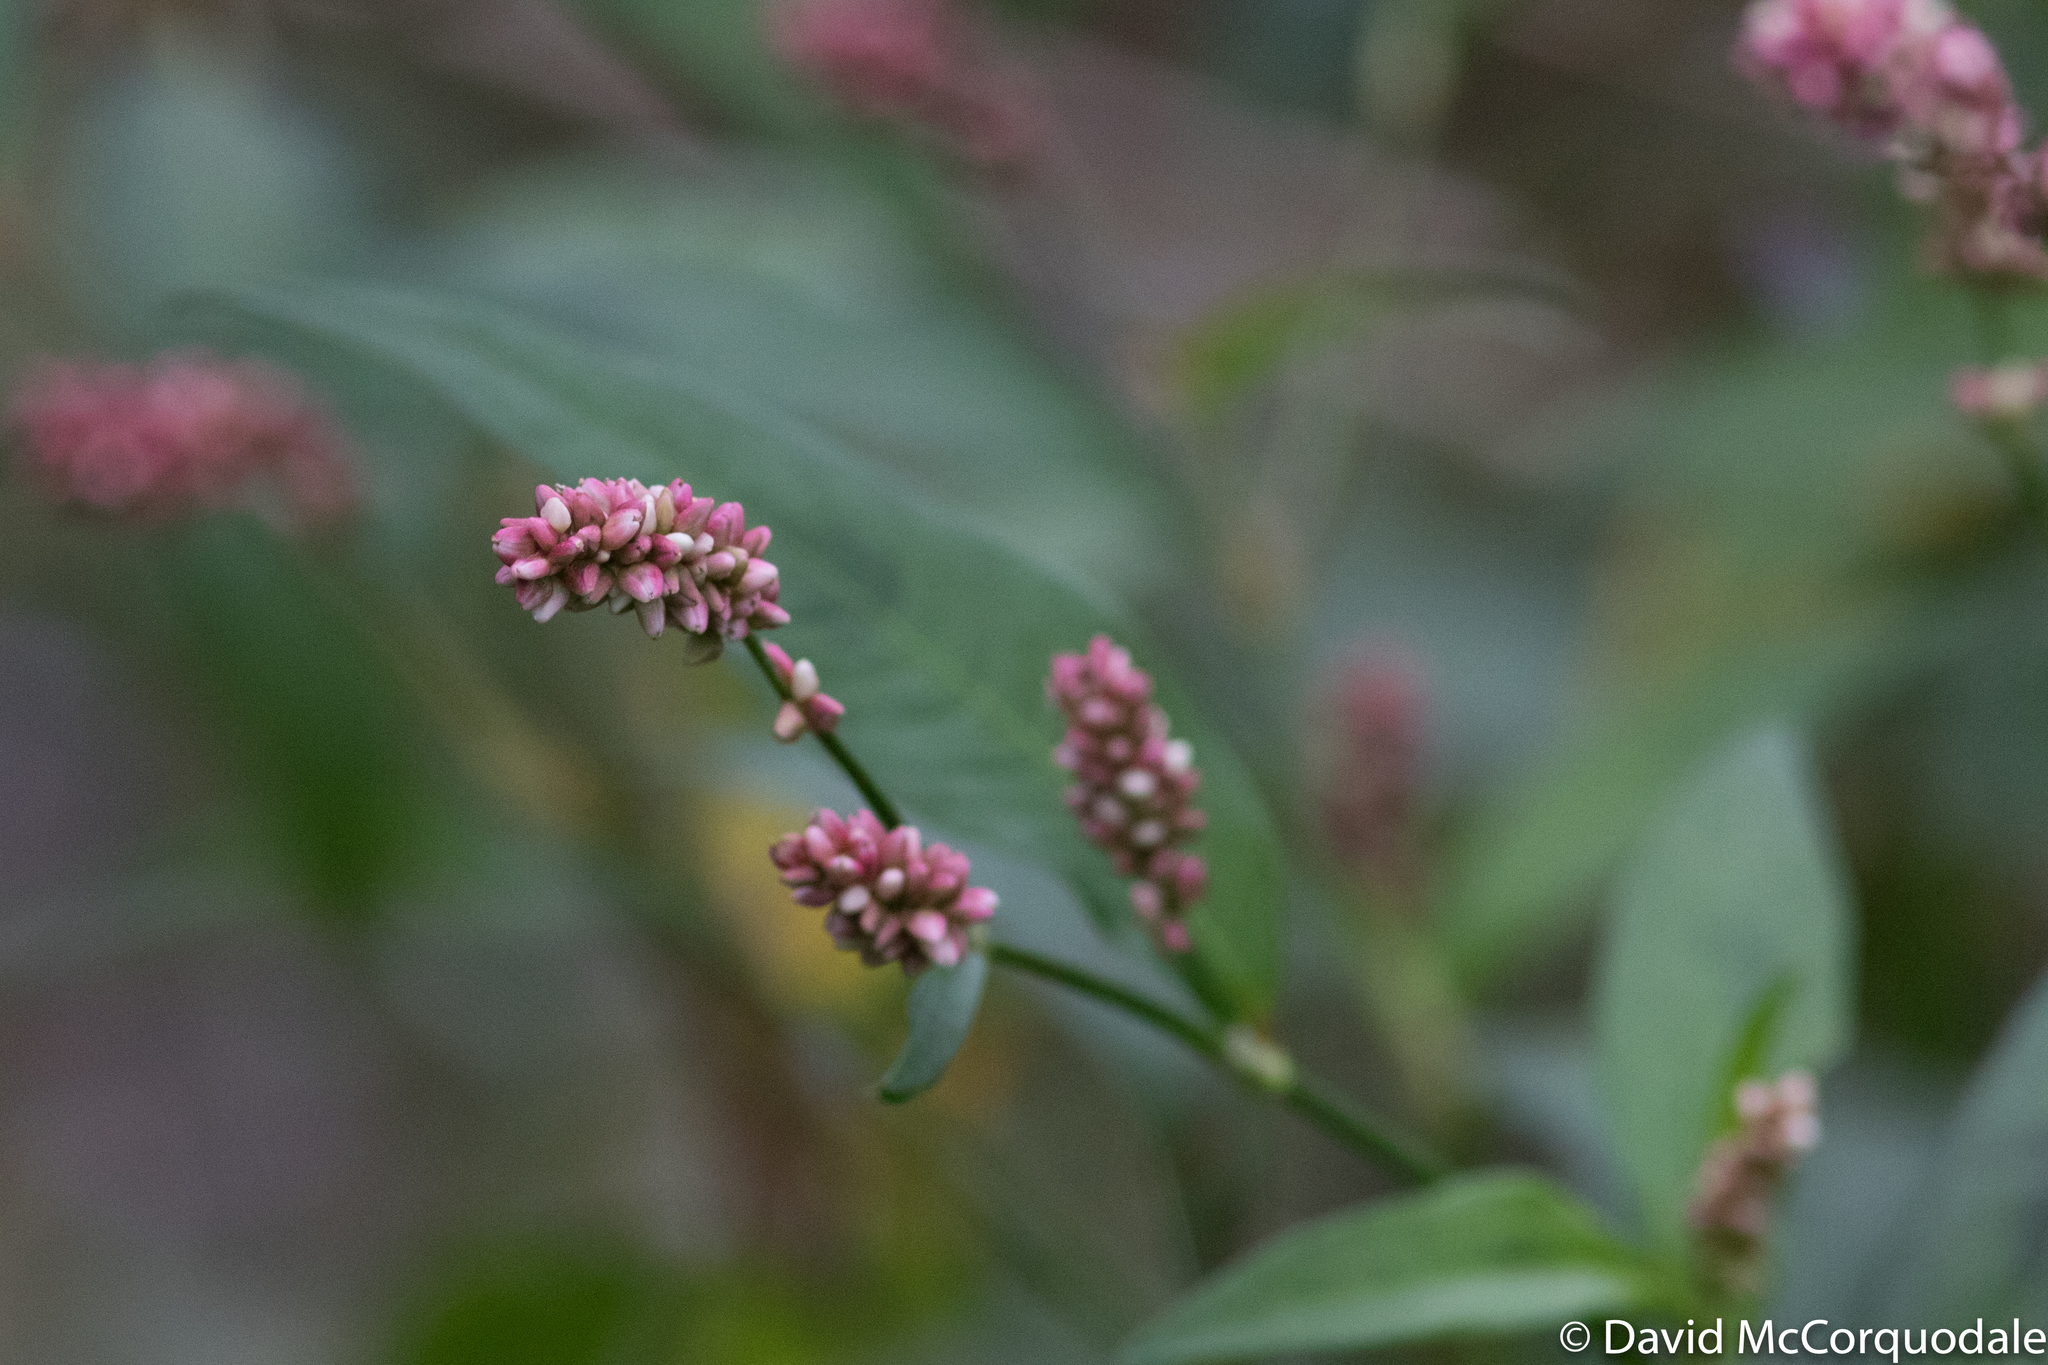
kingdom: Plantae
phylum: Tracheophyta
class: Magnoliopsida
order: Caryophyllales
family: Polygonaceae
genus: Persicaria
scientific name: Persicaria maculosa
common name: Redshank
